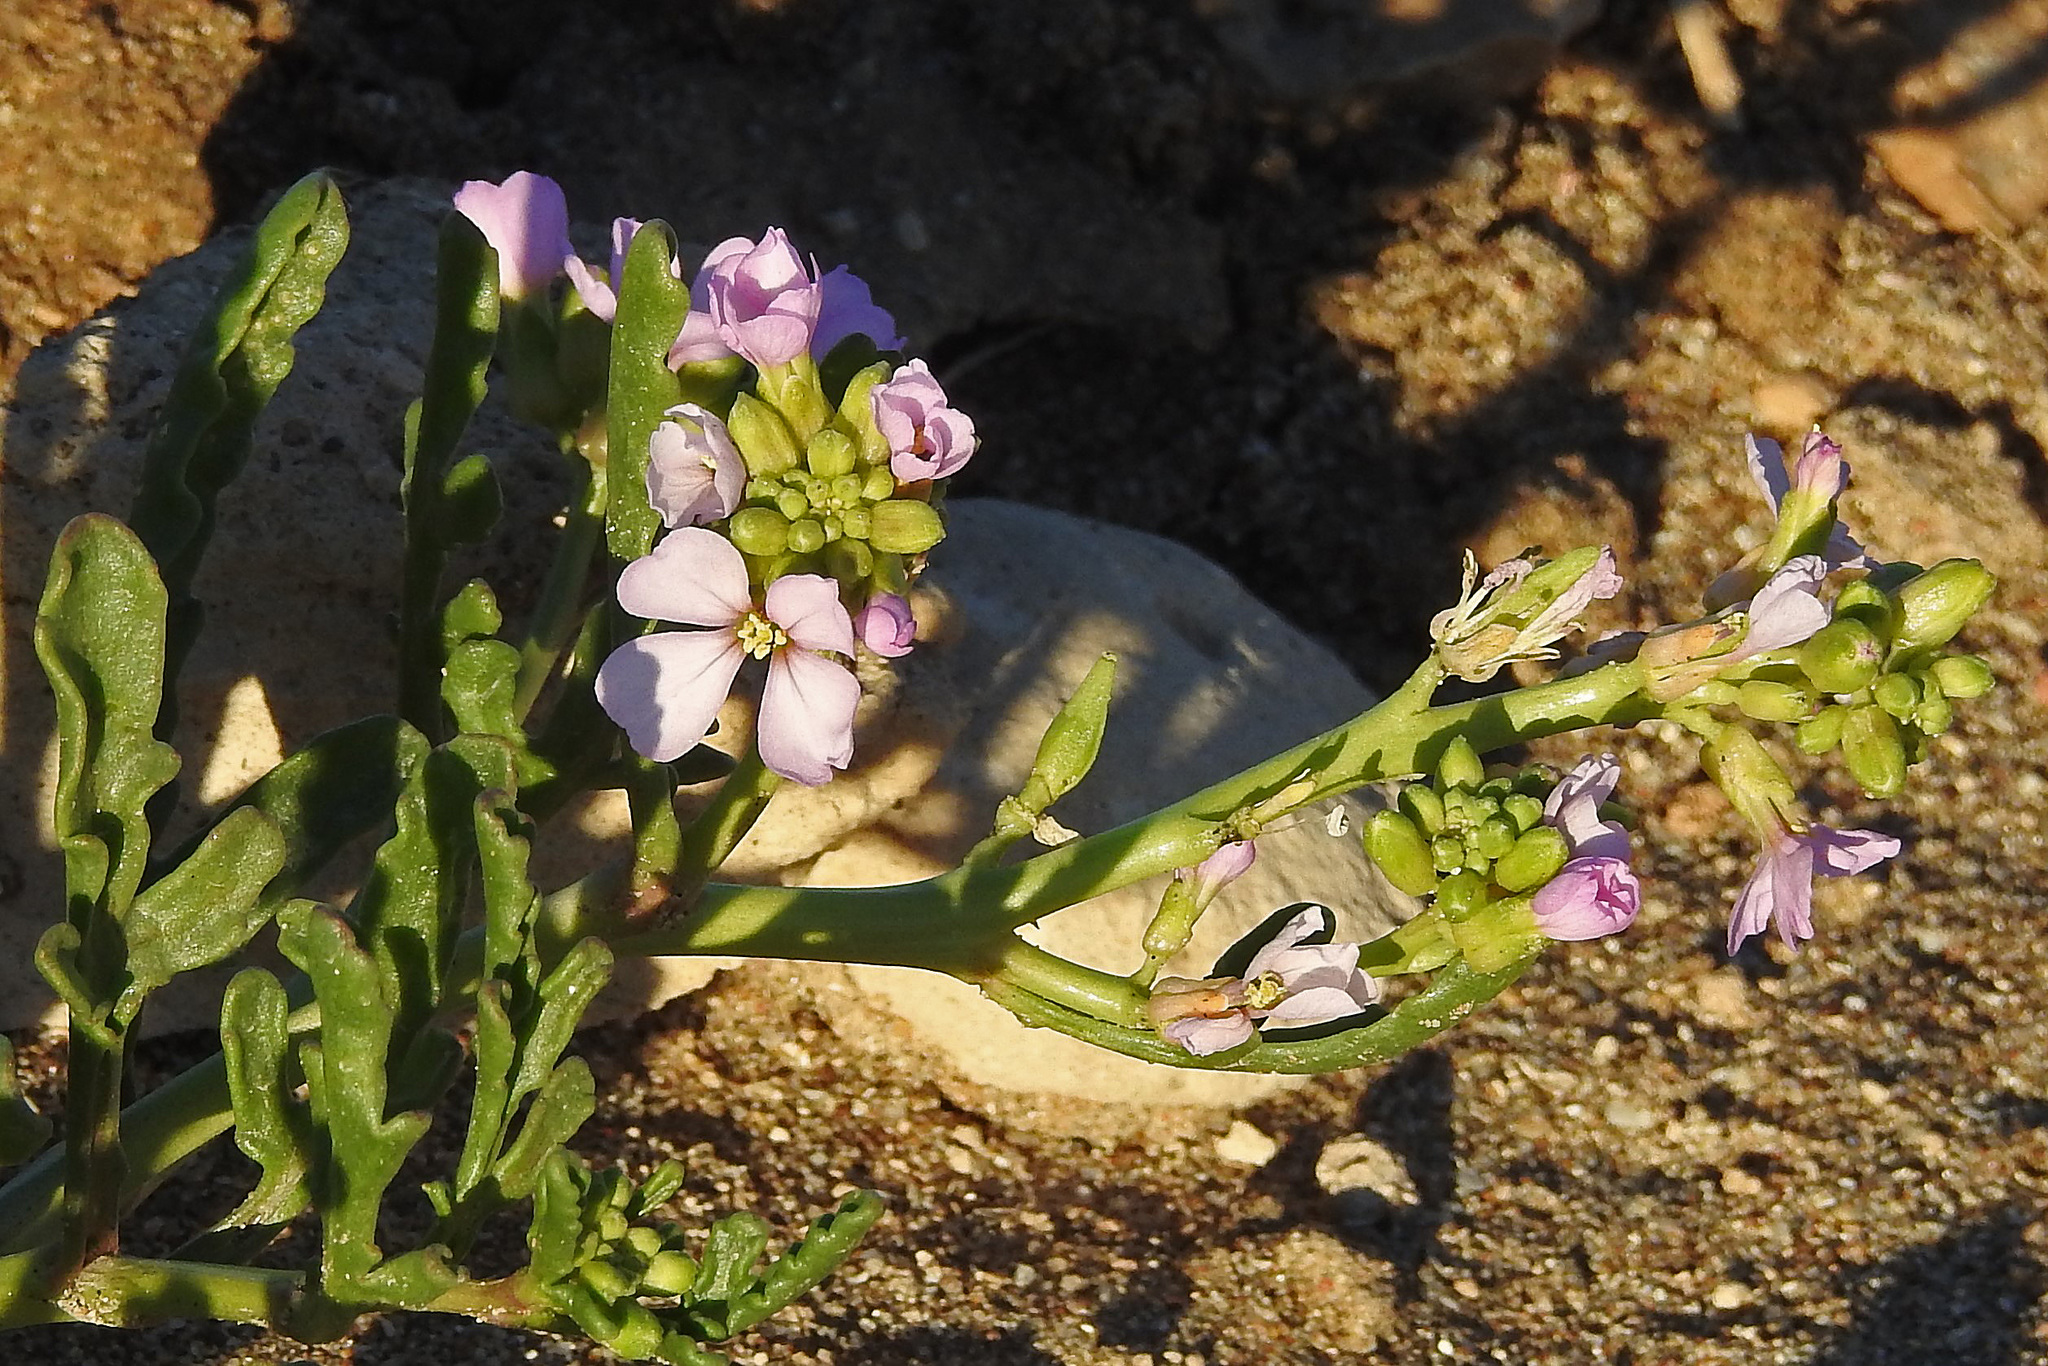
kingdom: Plantae
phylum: Tracheophyta
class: Magnoliopsida
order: Brassicales
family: Brassicaceae
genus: Cakile
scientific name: Cakile maritima
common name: Sea rocket
